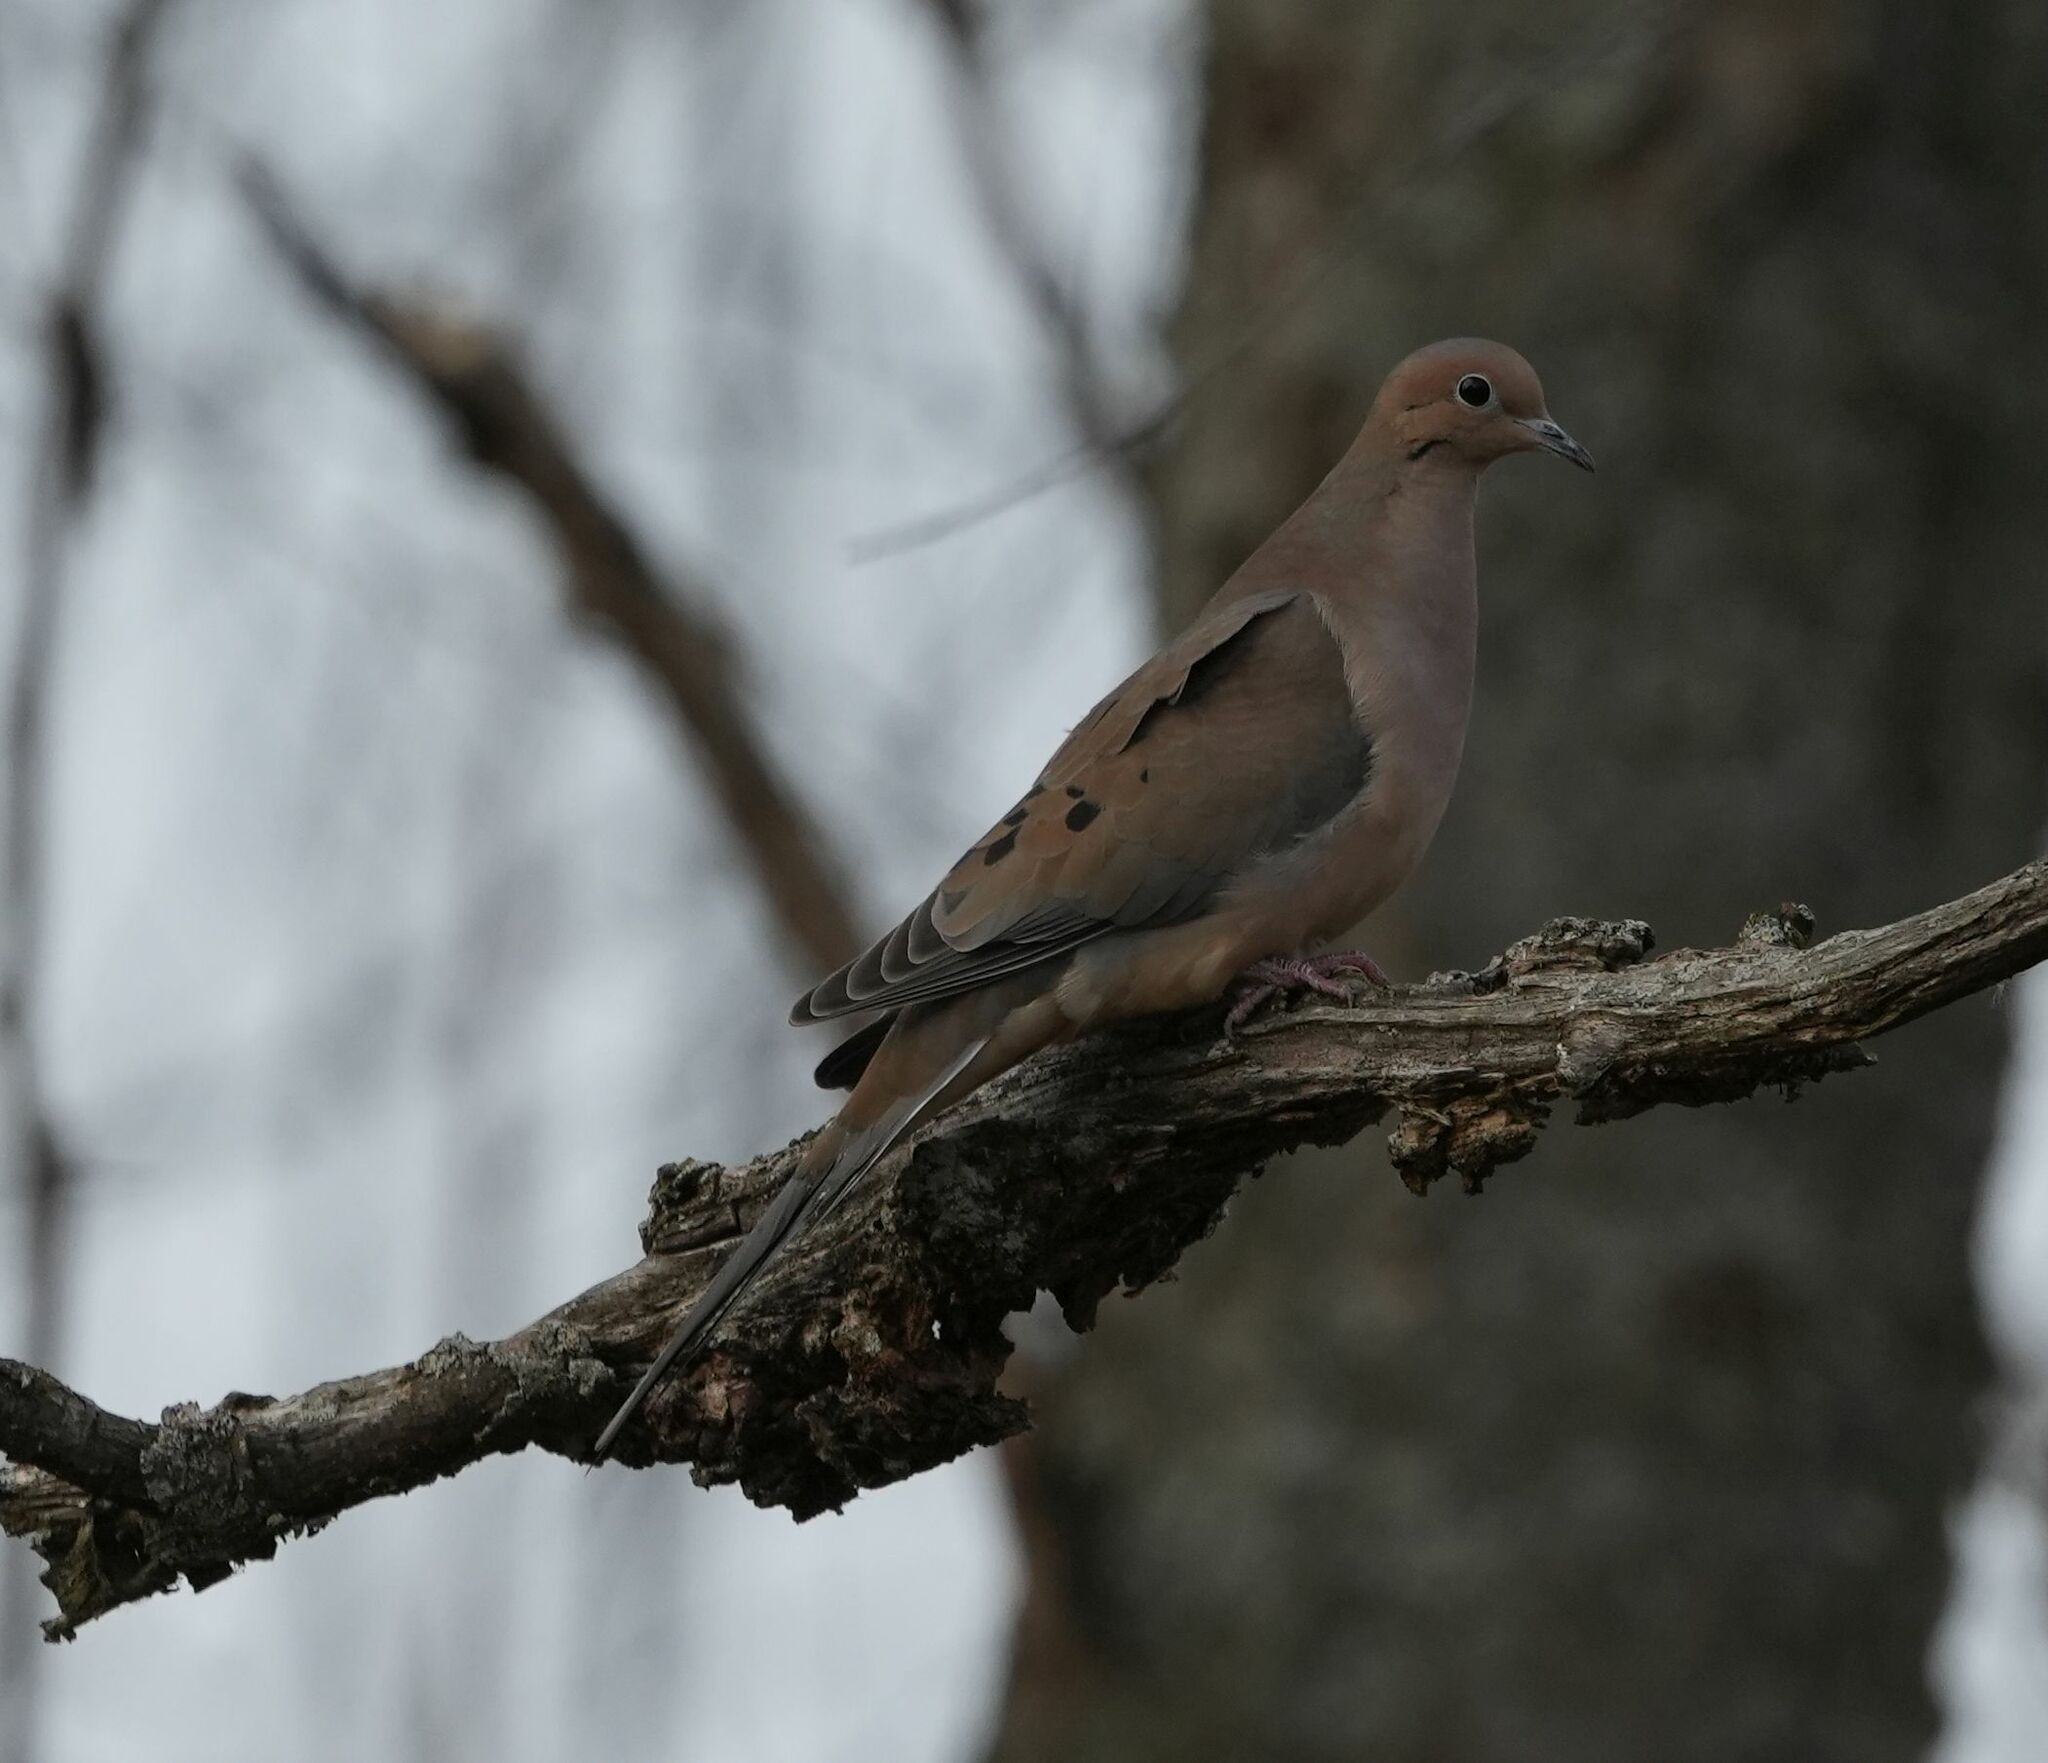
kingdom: Animalia
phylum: Chordata
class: Aves
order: Columbiformes
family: Columbidae
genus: Zenaida
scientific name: Zenaida macroura
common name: Mourning dove
